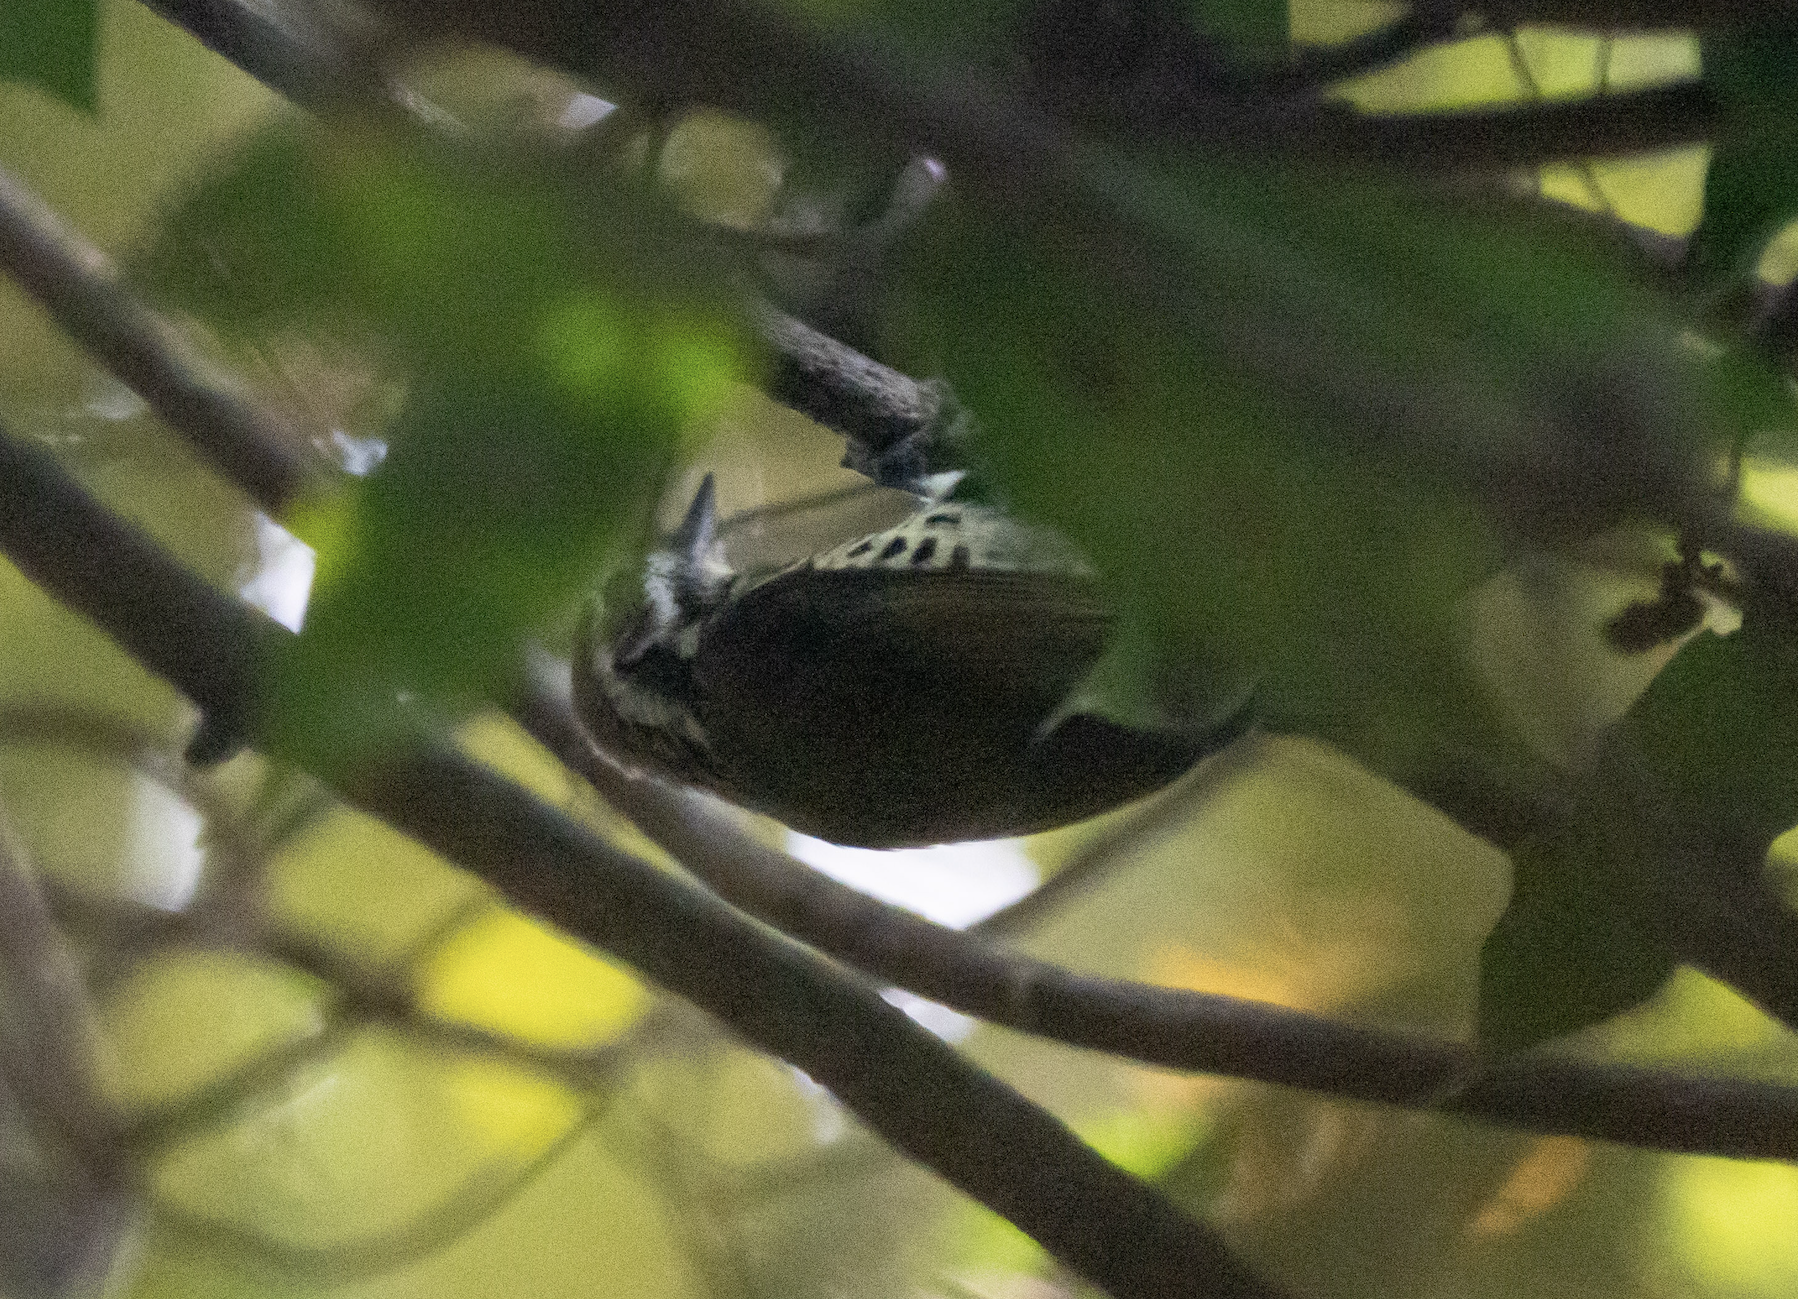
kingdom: Animalia
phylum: Chordata
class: Aves
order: Piciformes
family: Picidae
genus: Picumnus
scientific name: Picumnus innominatus
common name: Speckled piculet
